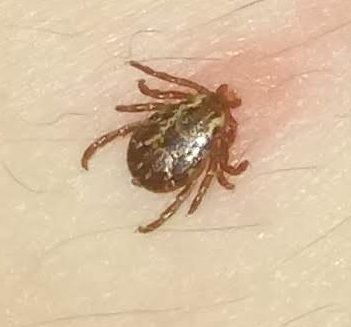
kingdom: Animalia
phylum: Arthropoda
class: Arachnida
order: Ixodida
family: Ixodidae
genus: Dermacentor
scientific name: Dermacentor variabilis
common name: American dog tick
